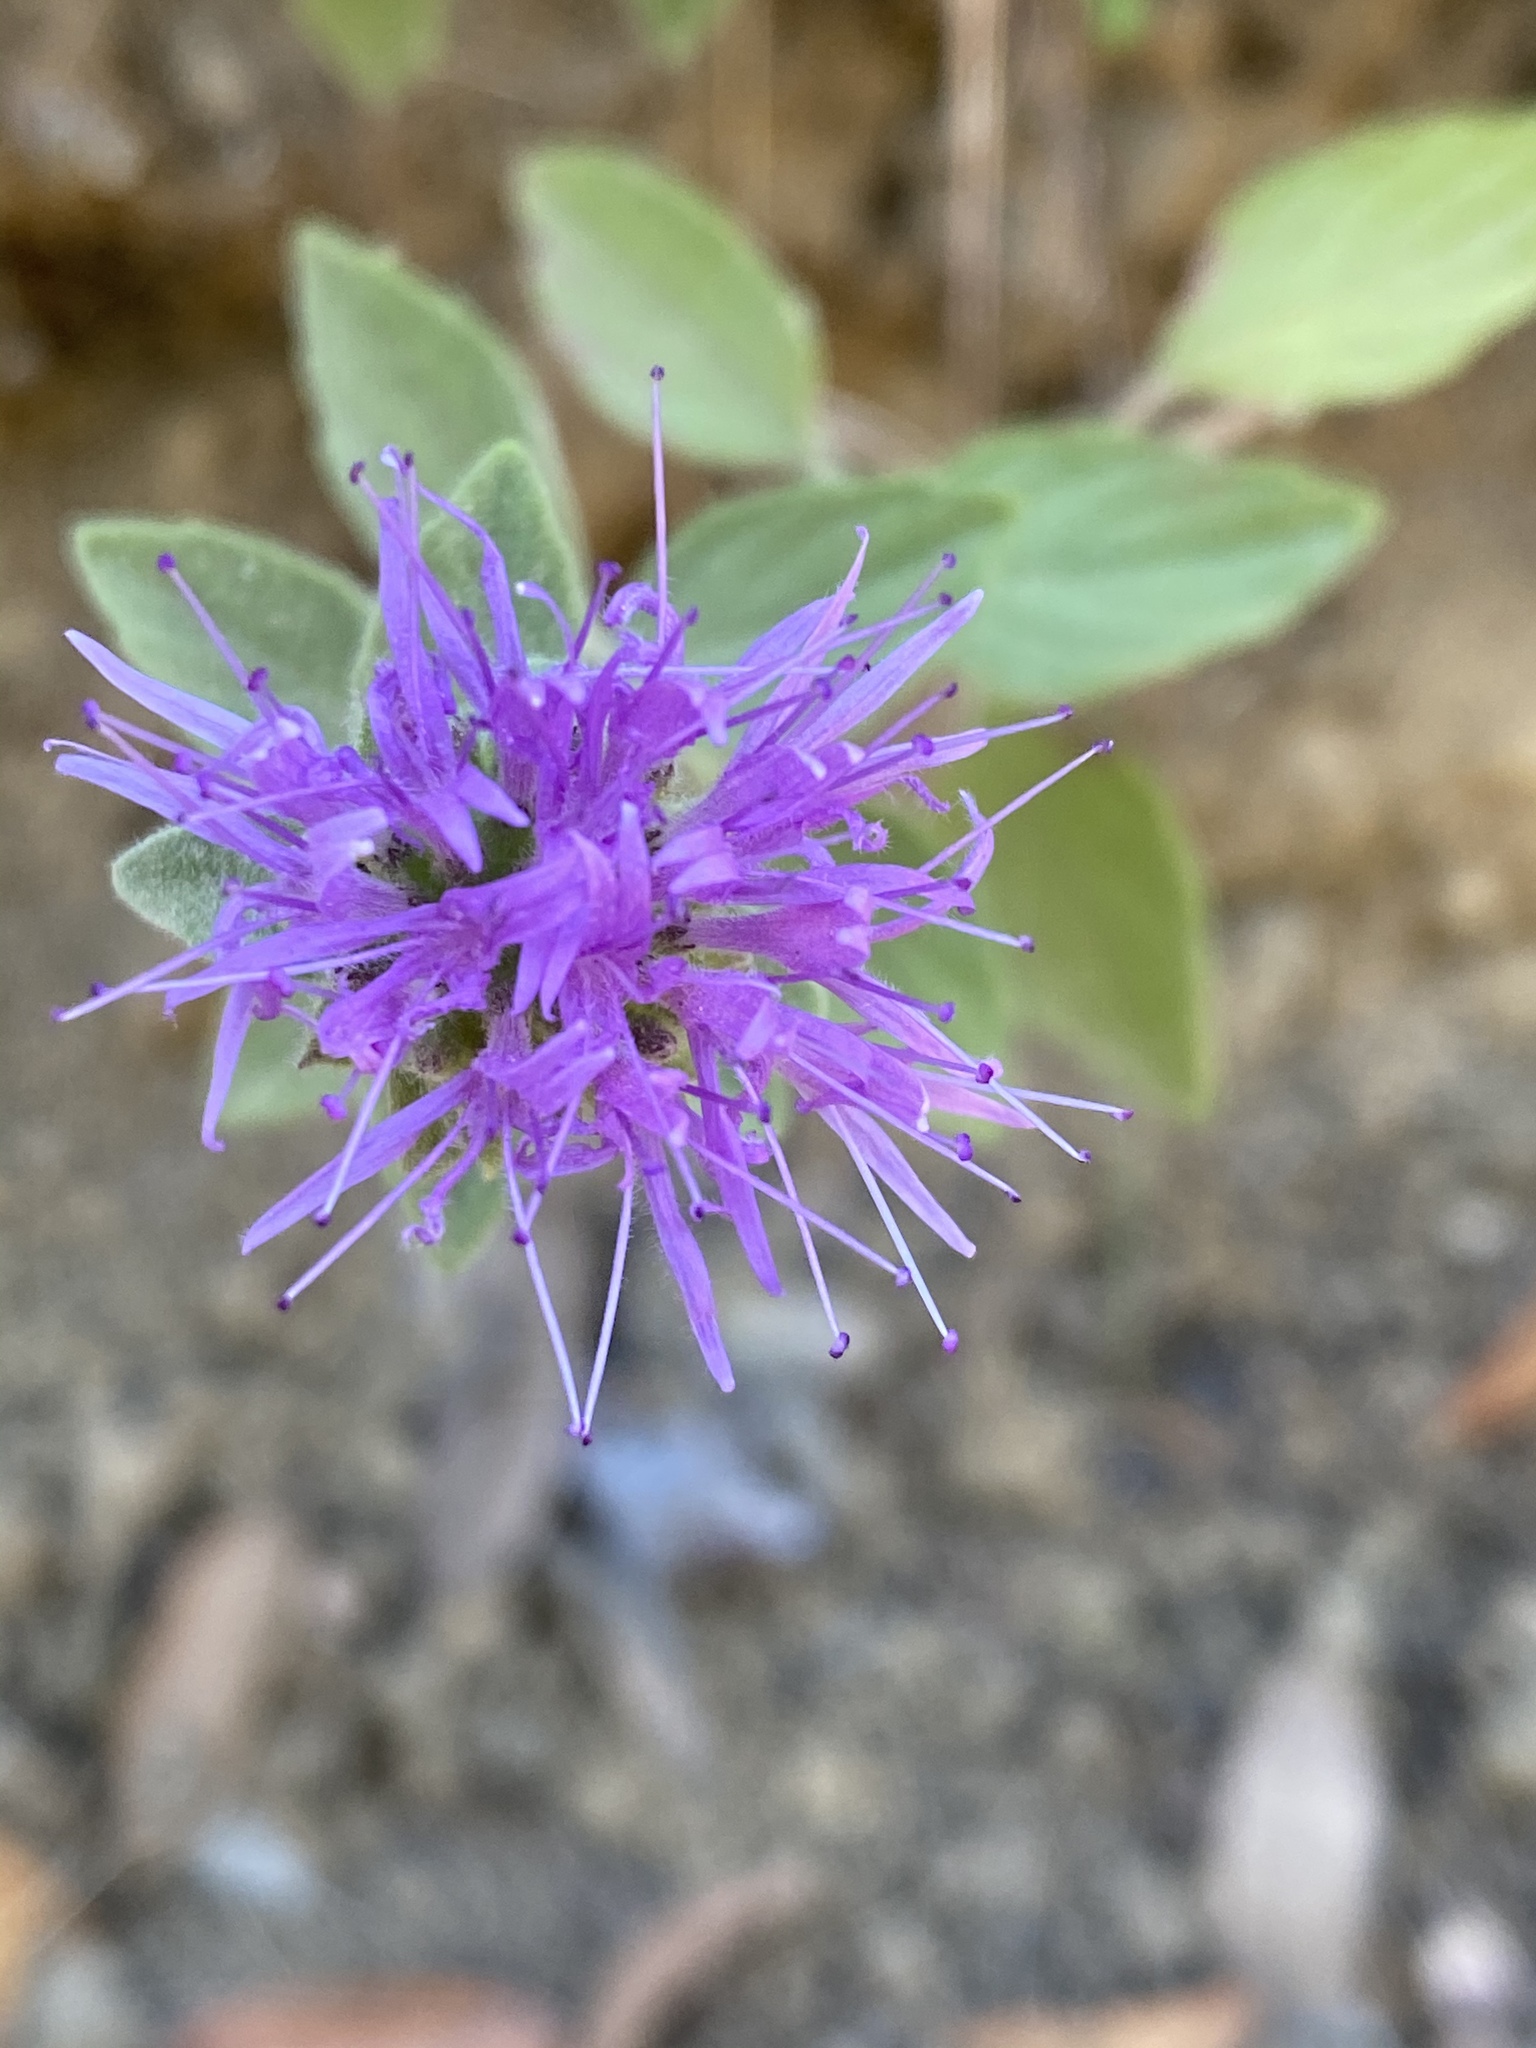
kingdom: Plantae
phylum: Tracheophyta
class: Magnoliopsida
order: Lamiales
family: Lamiaceae
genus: Monardella
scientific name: Monardella odoratissima
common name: Pacific monardella
